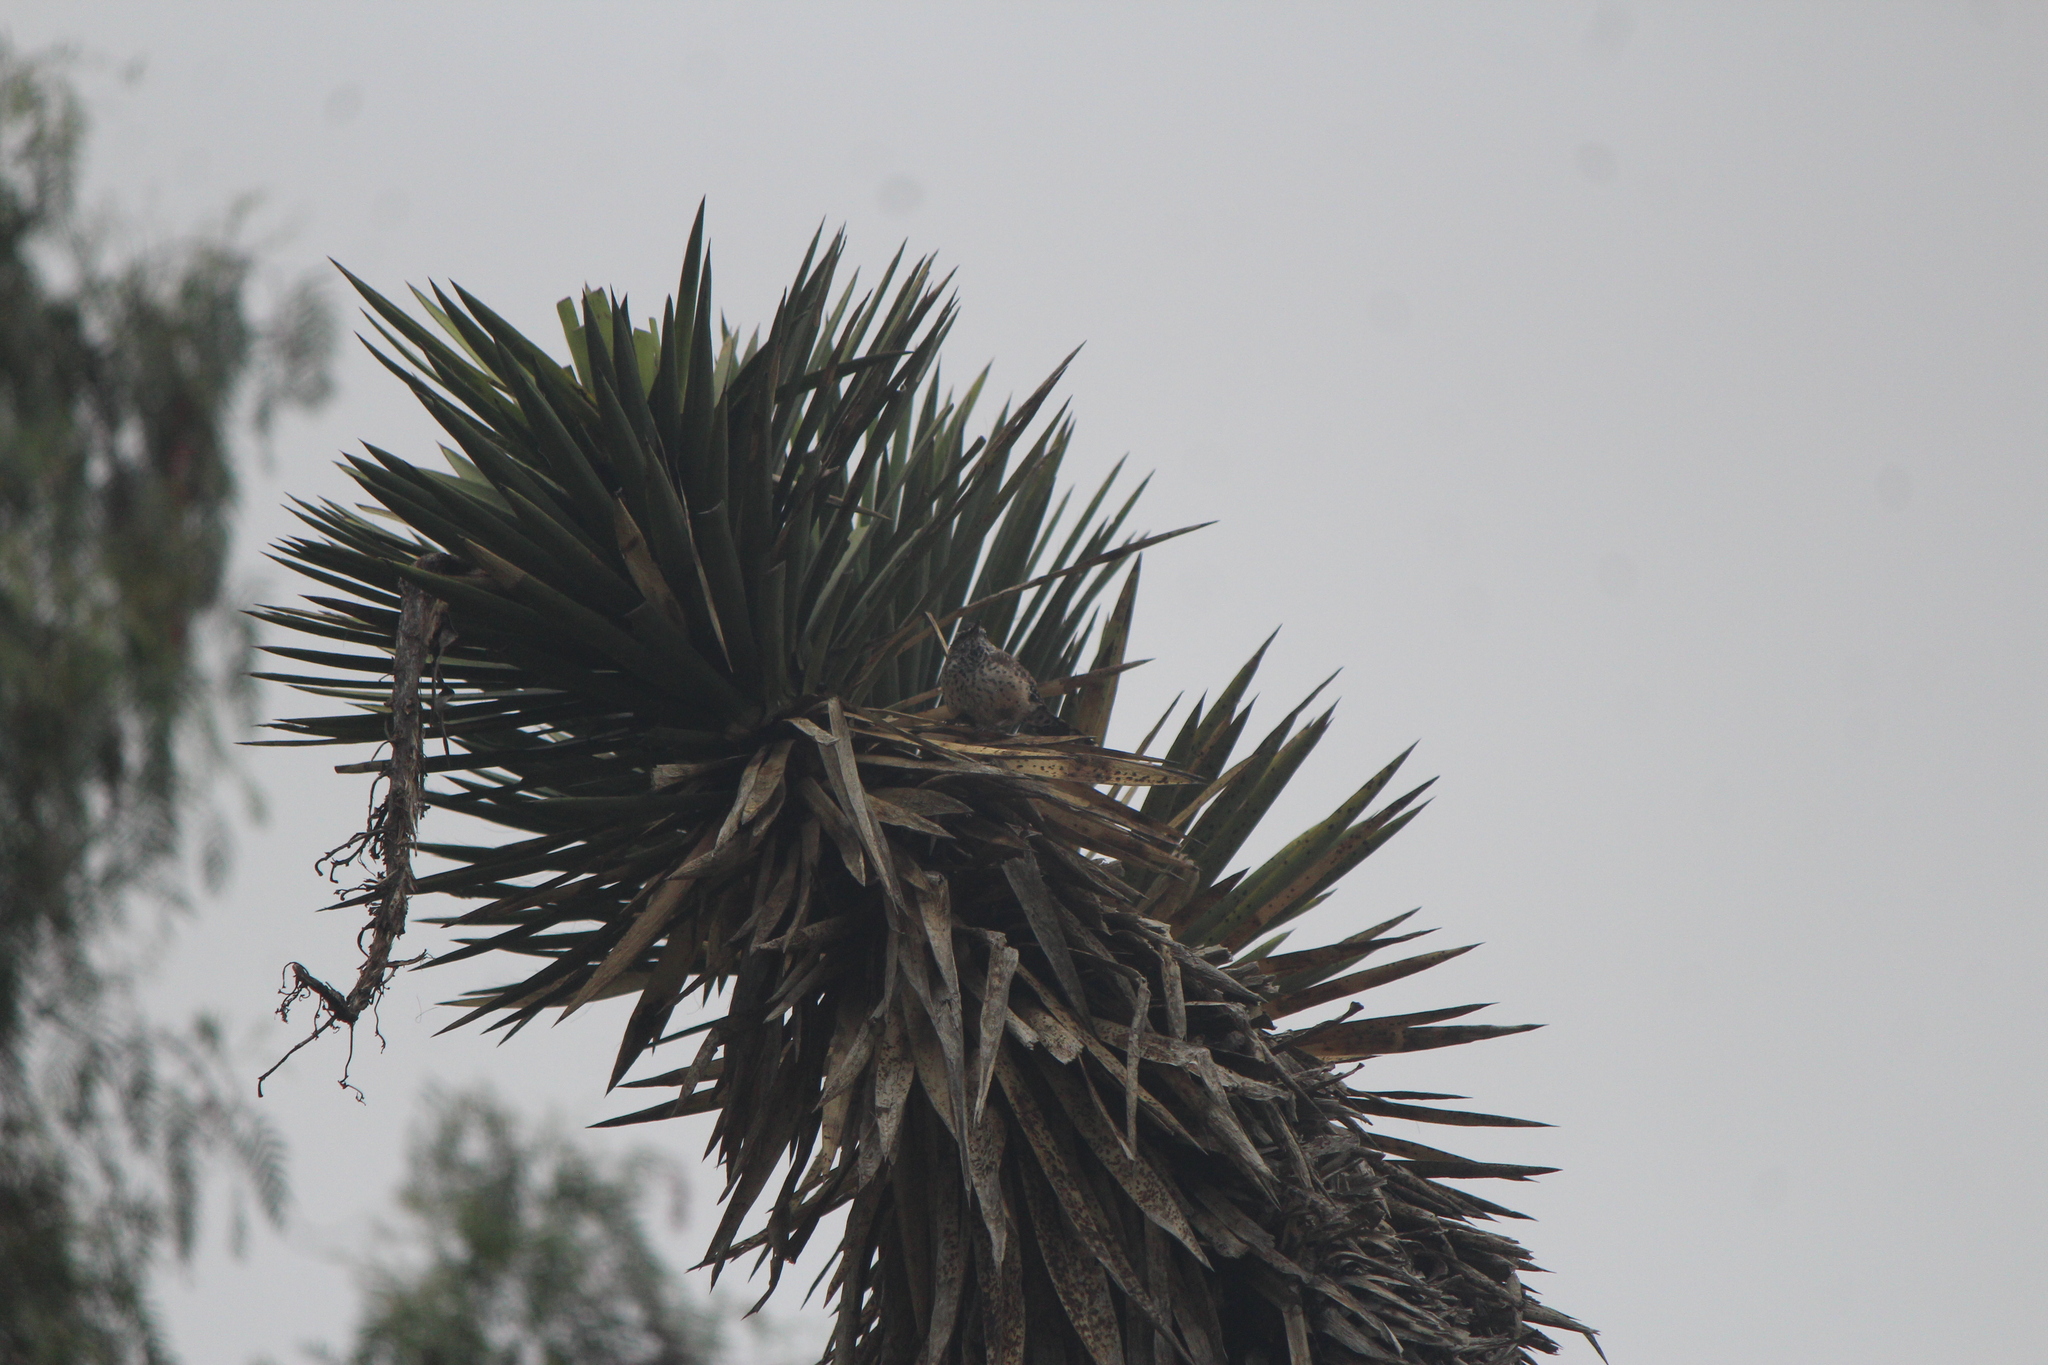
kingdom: Animalia
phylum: Chordata
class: Aves
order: Passeriformes
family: Troglodytidae
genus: Campylorhynchus
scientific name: Campylorhynchus brunneicapillus
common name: Cactus wren
